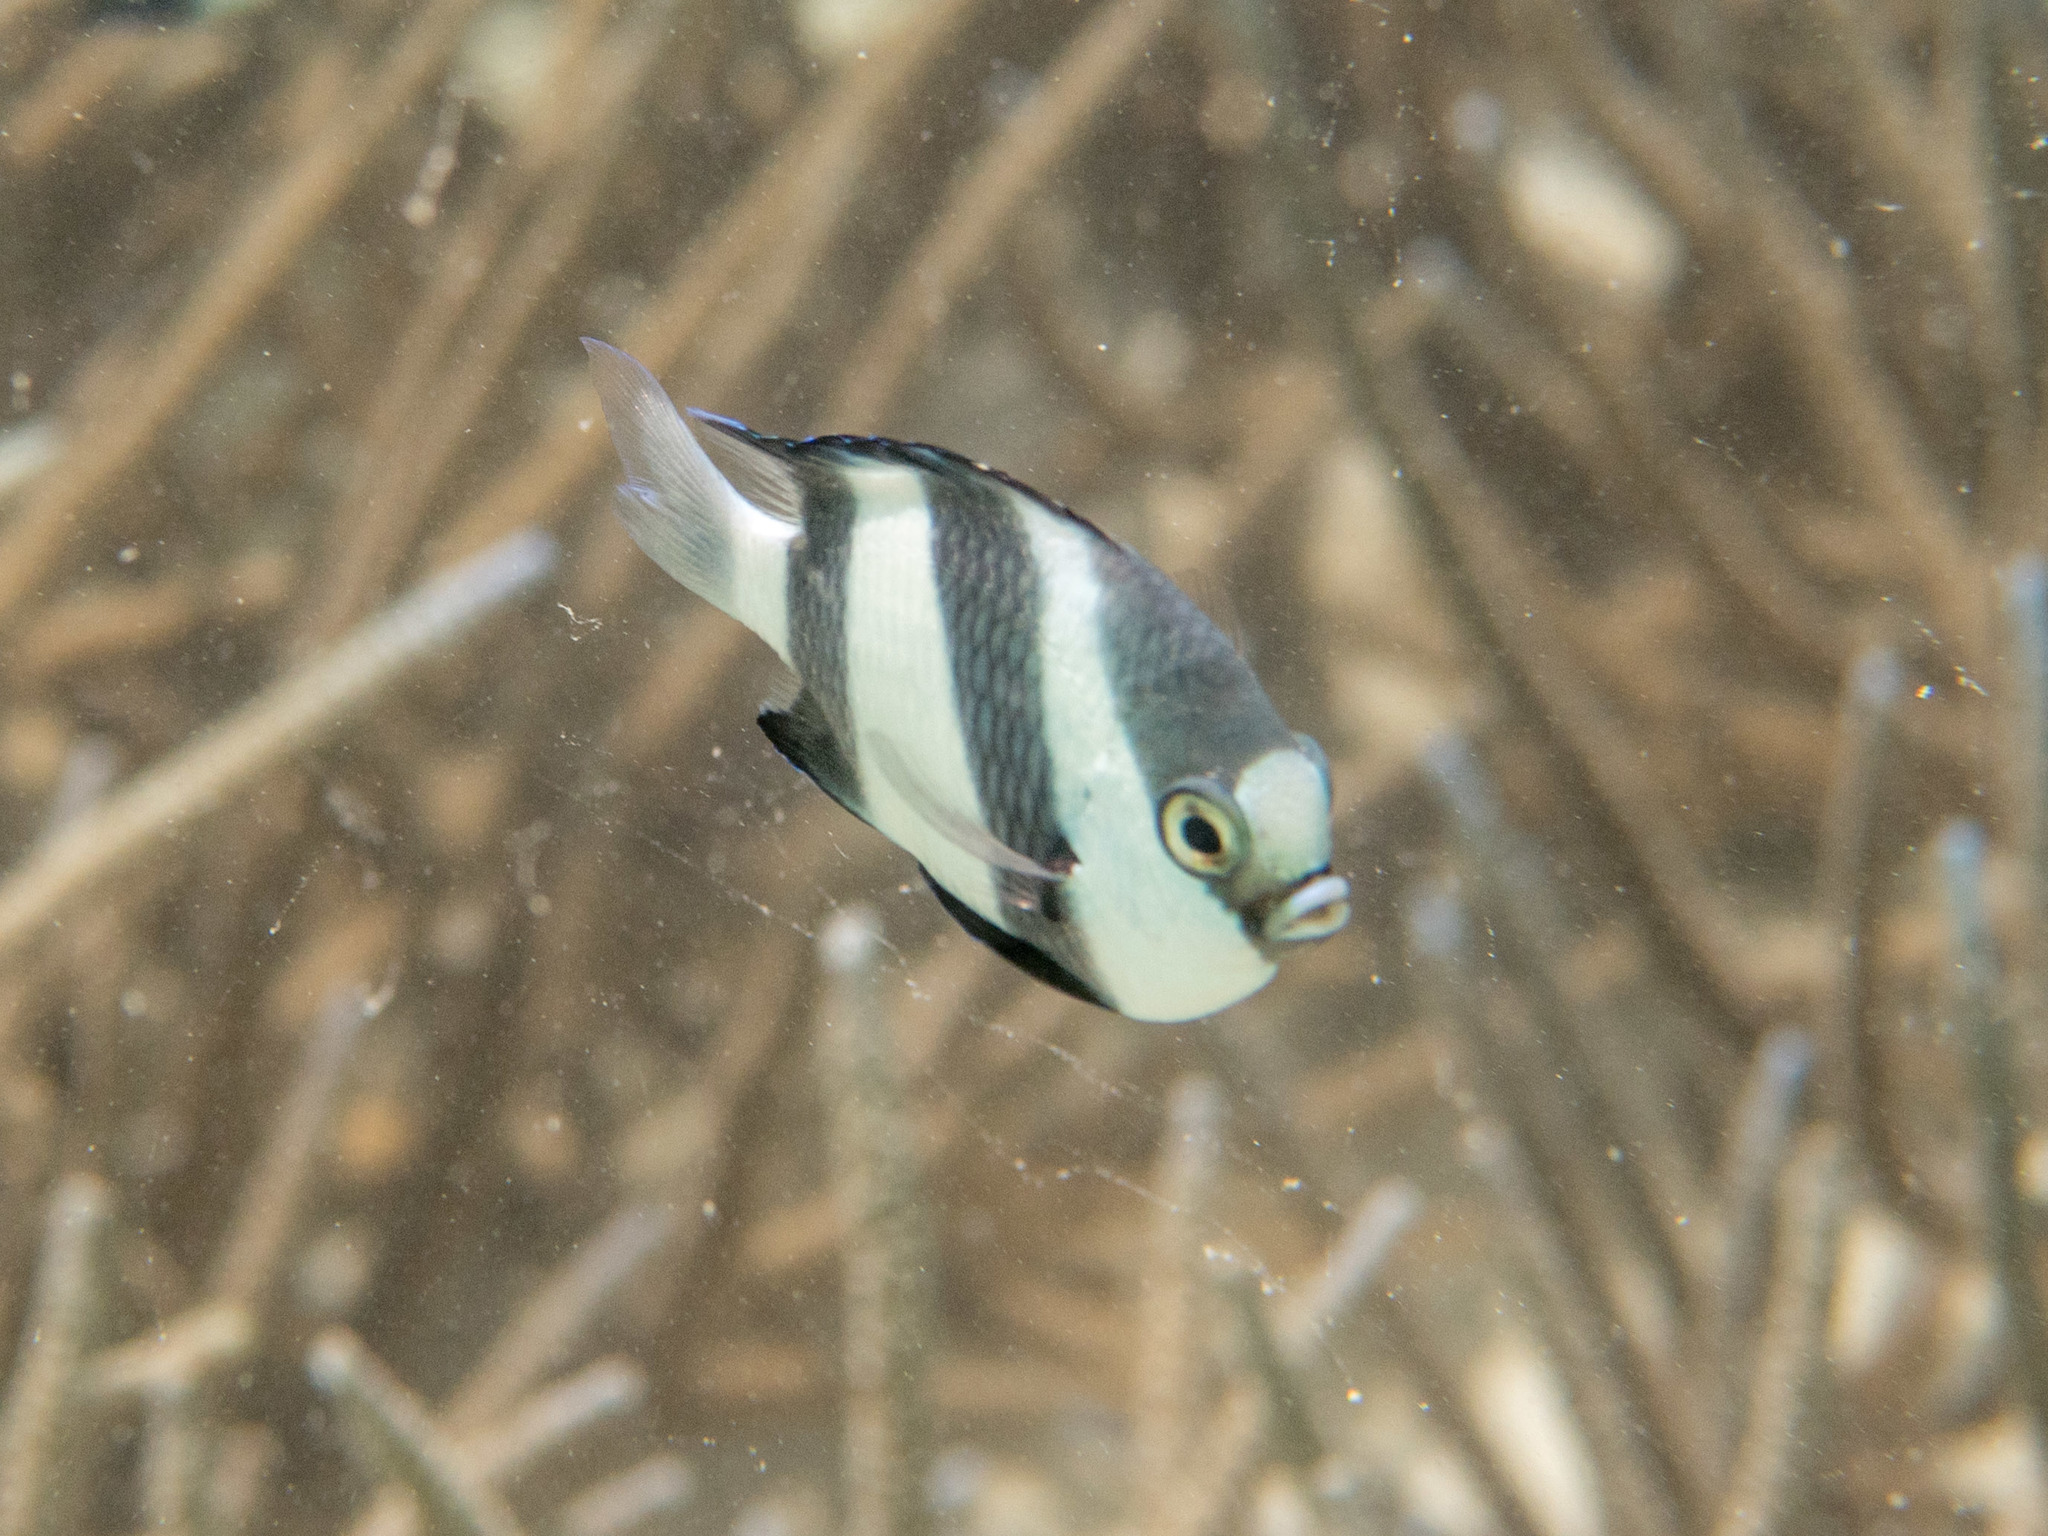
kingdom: Animalia
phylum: Chordata
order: Perciformes
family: Pomacentridae
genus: Dascyllus
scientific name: Dascyllus abudafur
